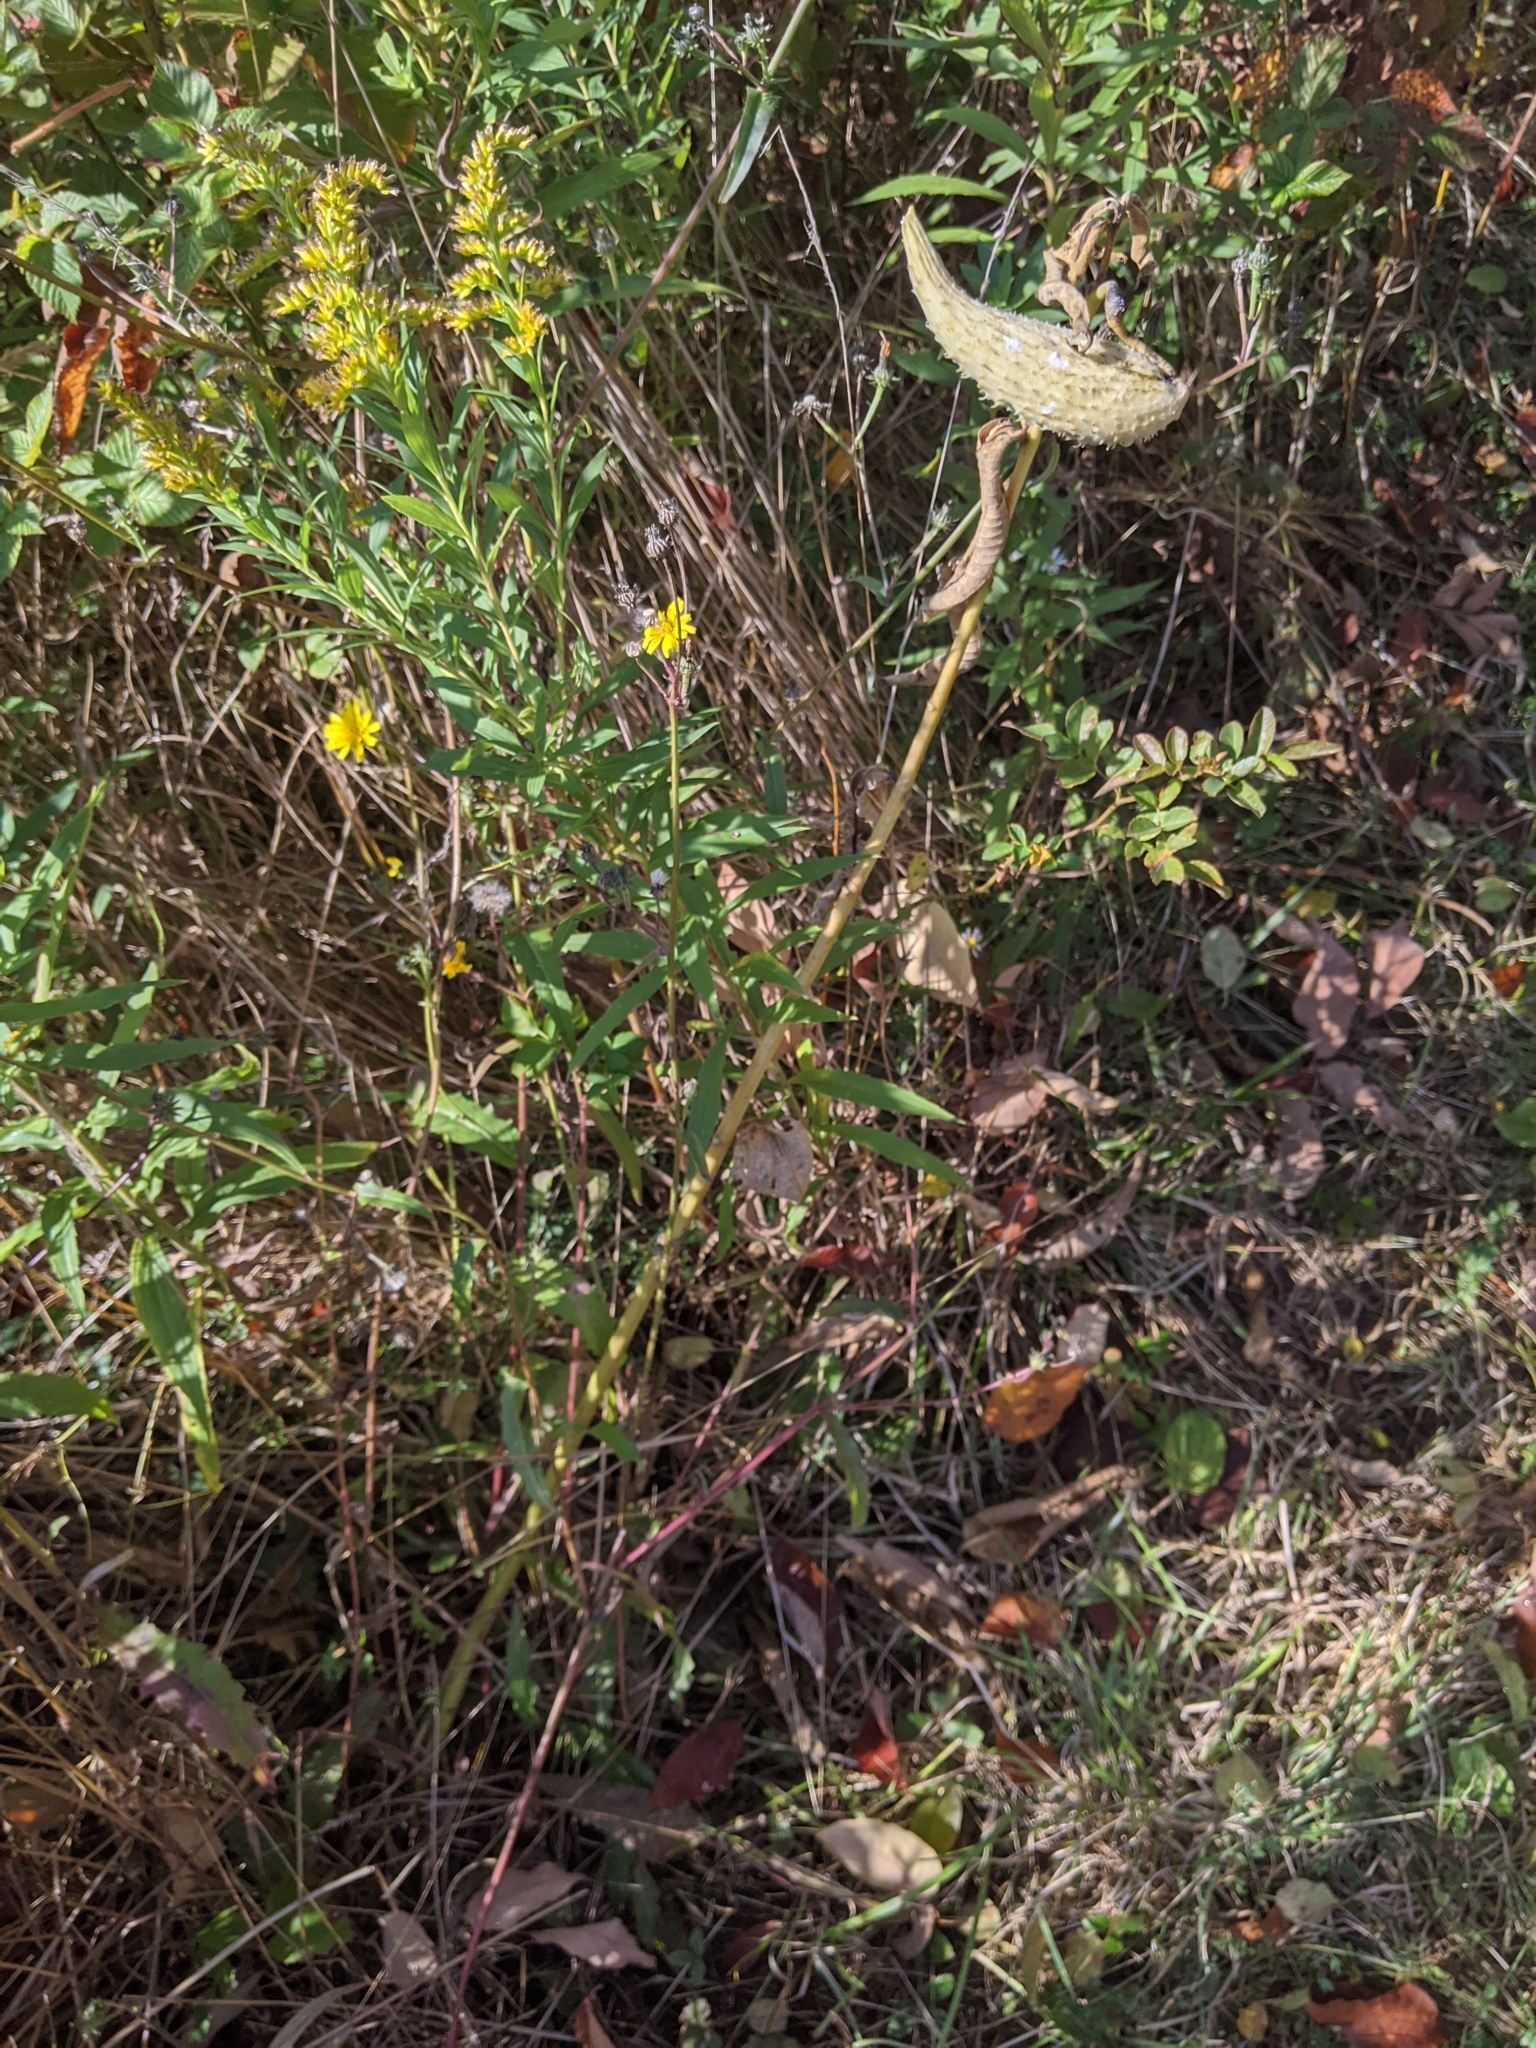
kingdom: Plantae
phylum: Tracheophyta
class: Magnoliopsida
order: Gentianales
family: Apocynaceae
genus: Asclepias
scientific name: Asclepias syriaca
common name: Common milkweed
